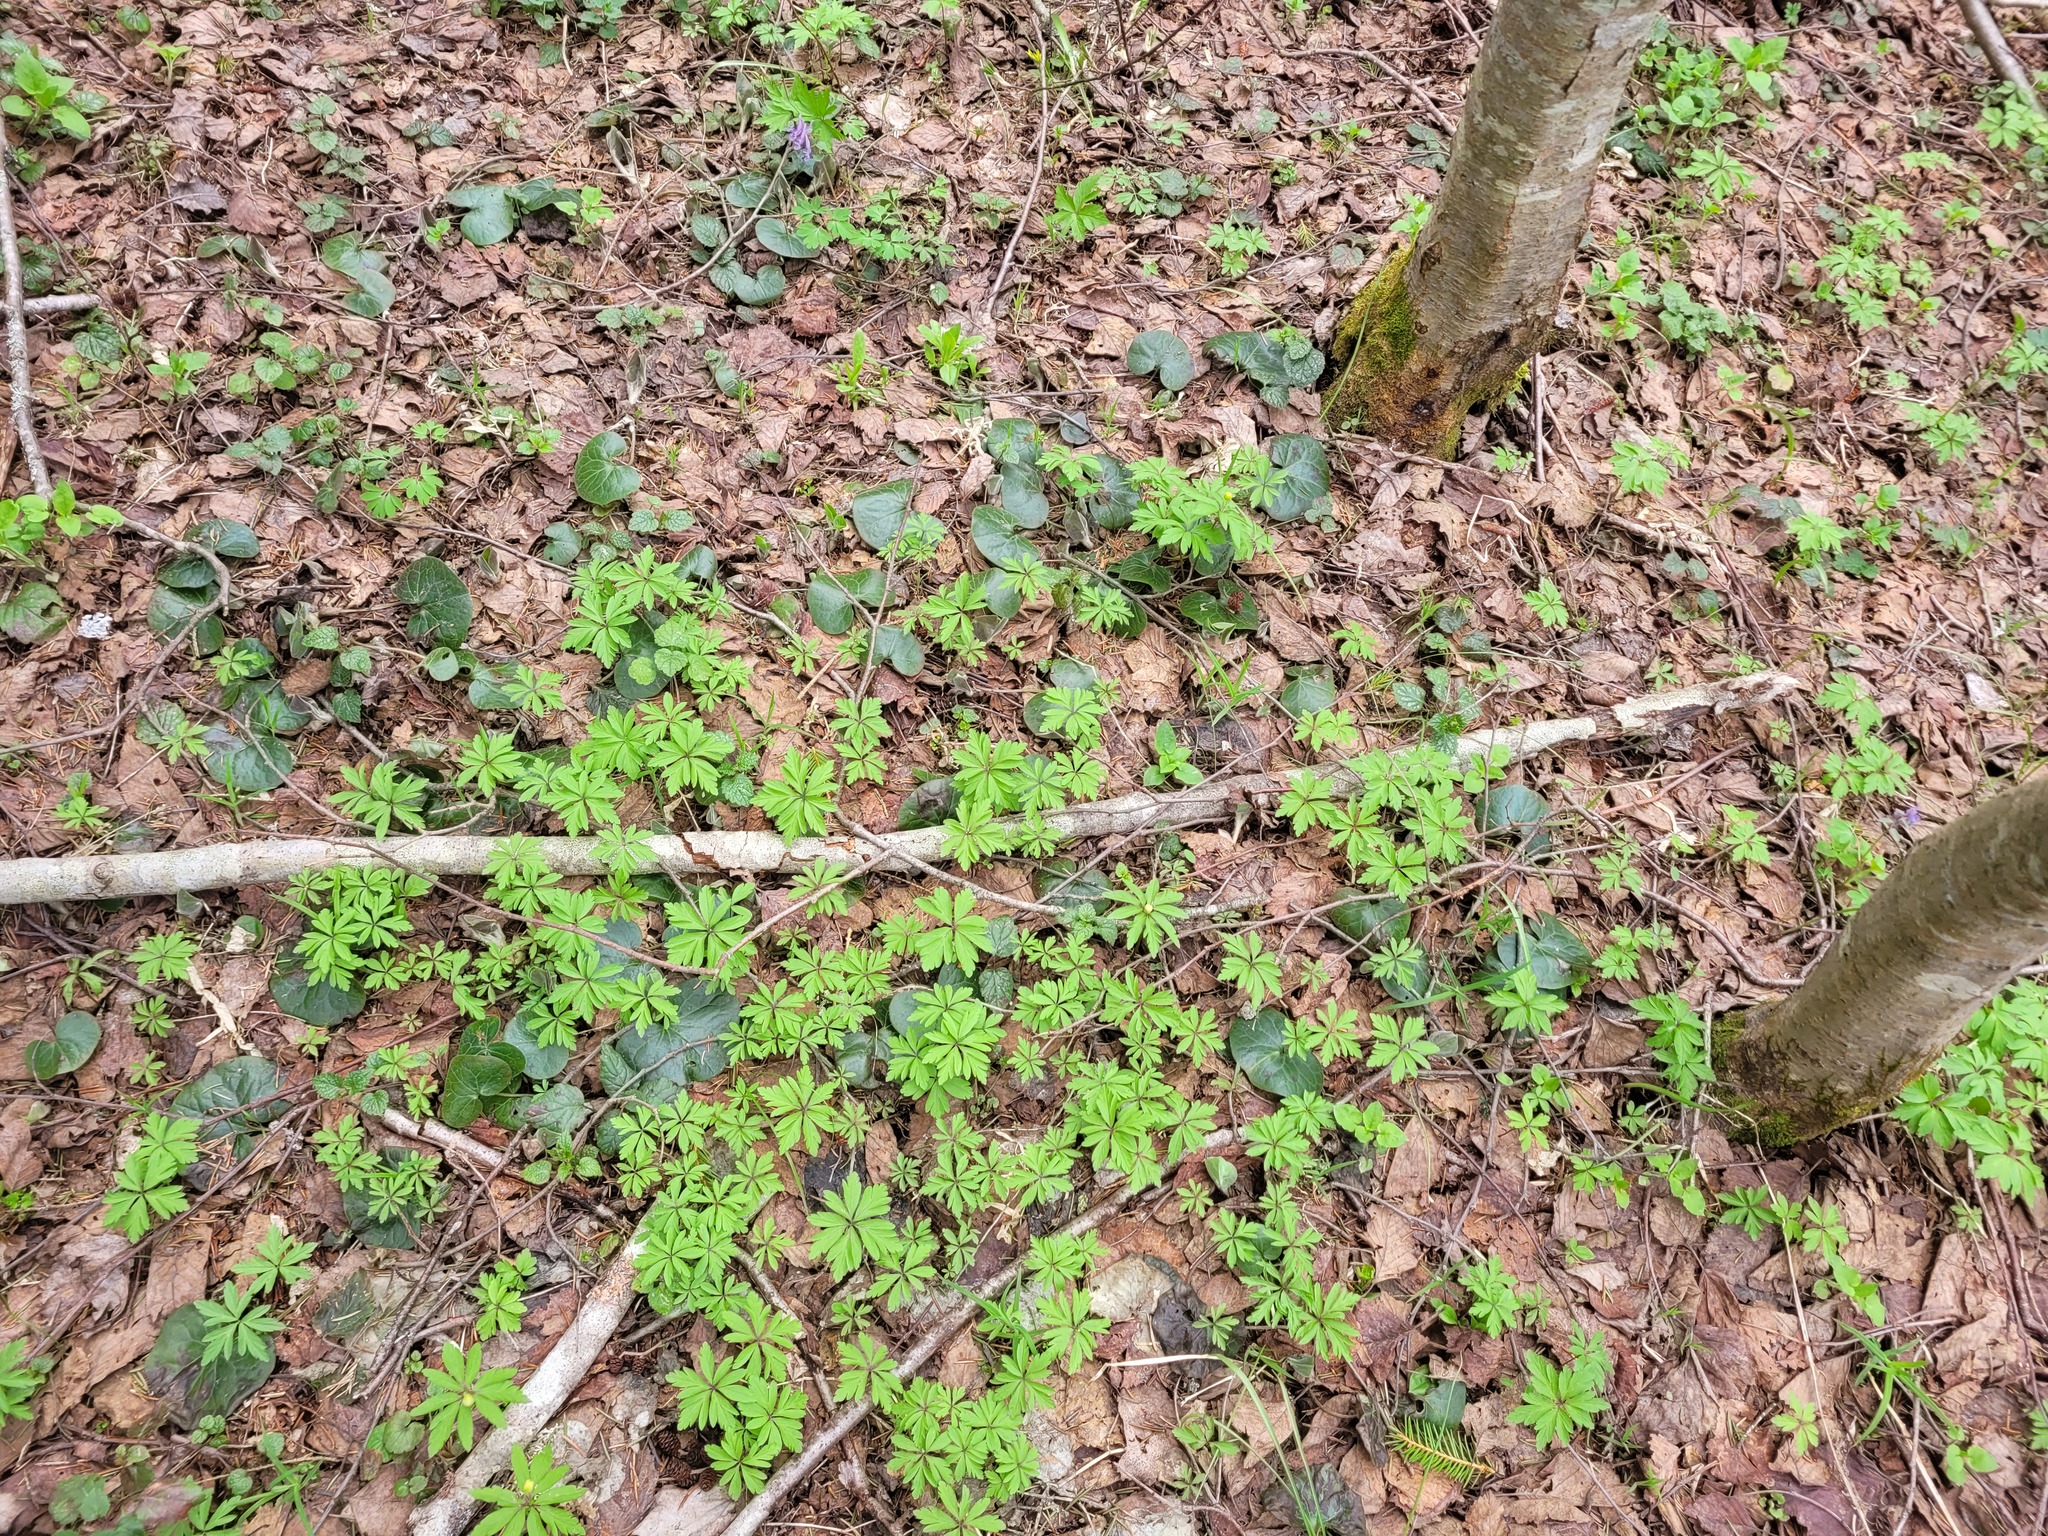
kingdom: Plantae
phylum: Tracheophyta
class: Magnoliopsida
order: Piperales
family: Aristolochiaceae
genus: Asarum
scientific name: Asarum europaeum
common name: Asarabacca
